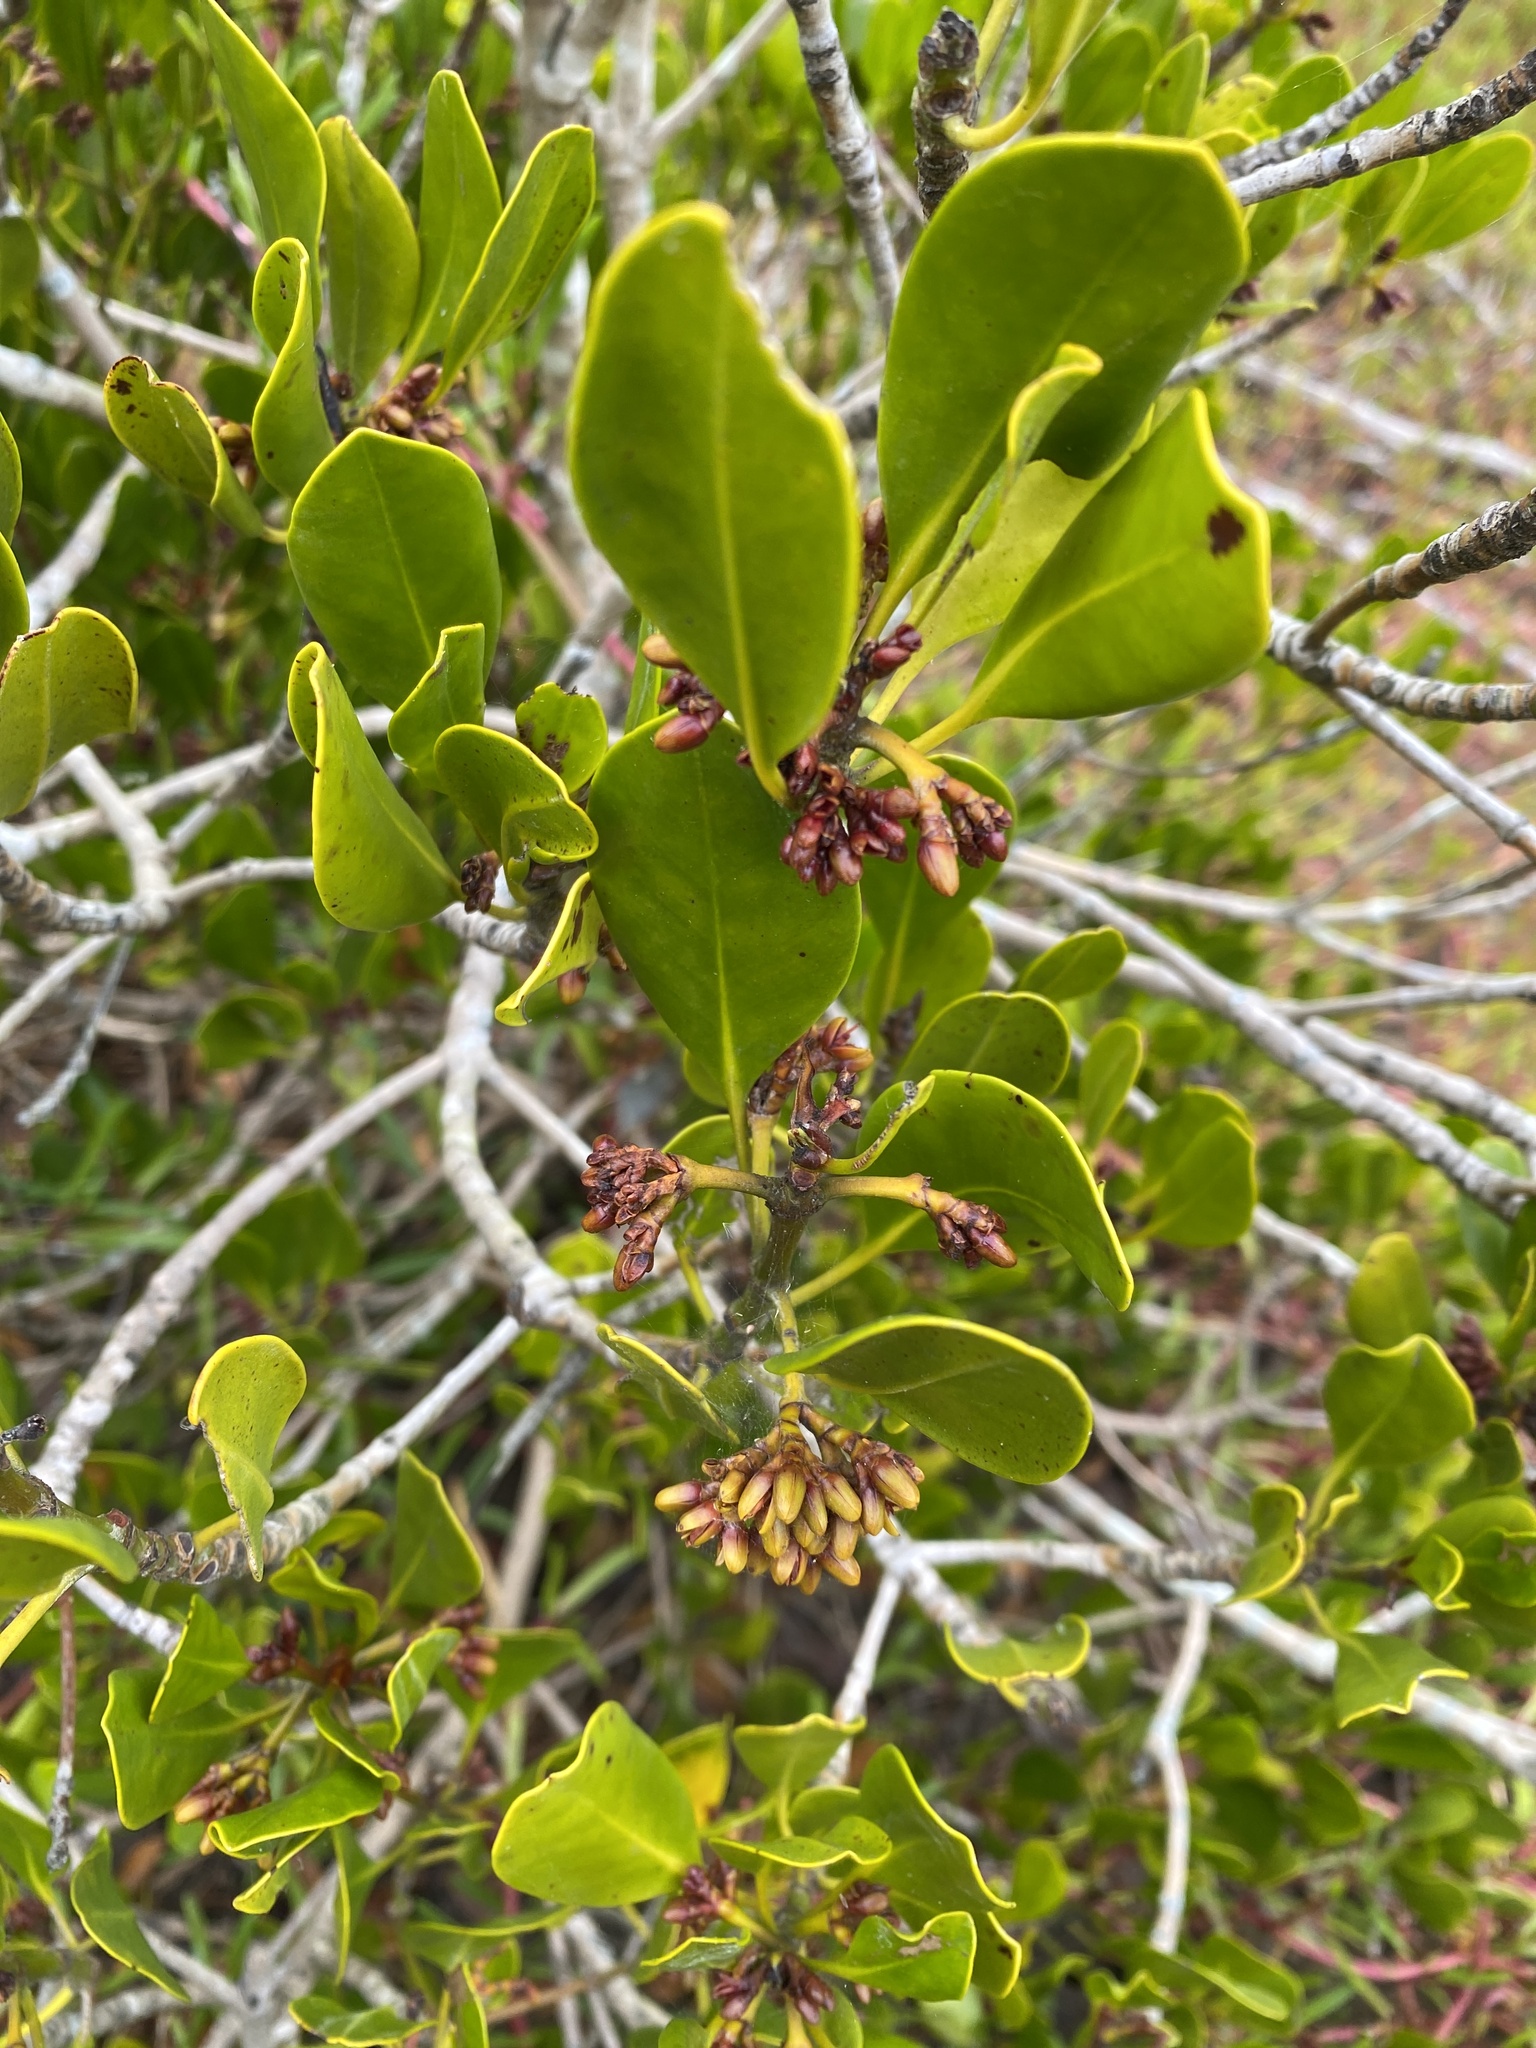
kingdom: Plantae
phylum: Tracheophyta
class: Magnoliopsida
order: Malpighiales
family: Rhizophoraceae
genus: Ceriops
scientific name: Ceriops australis
